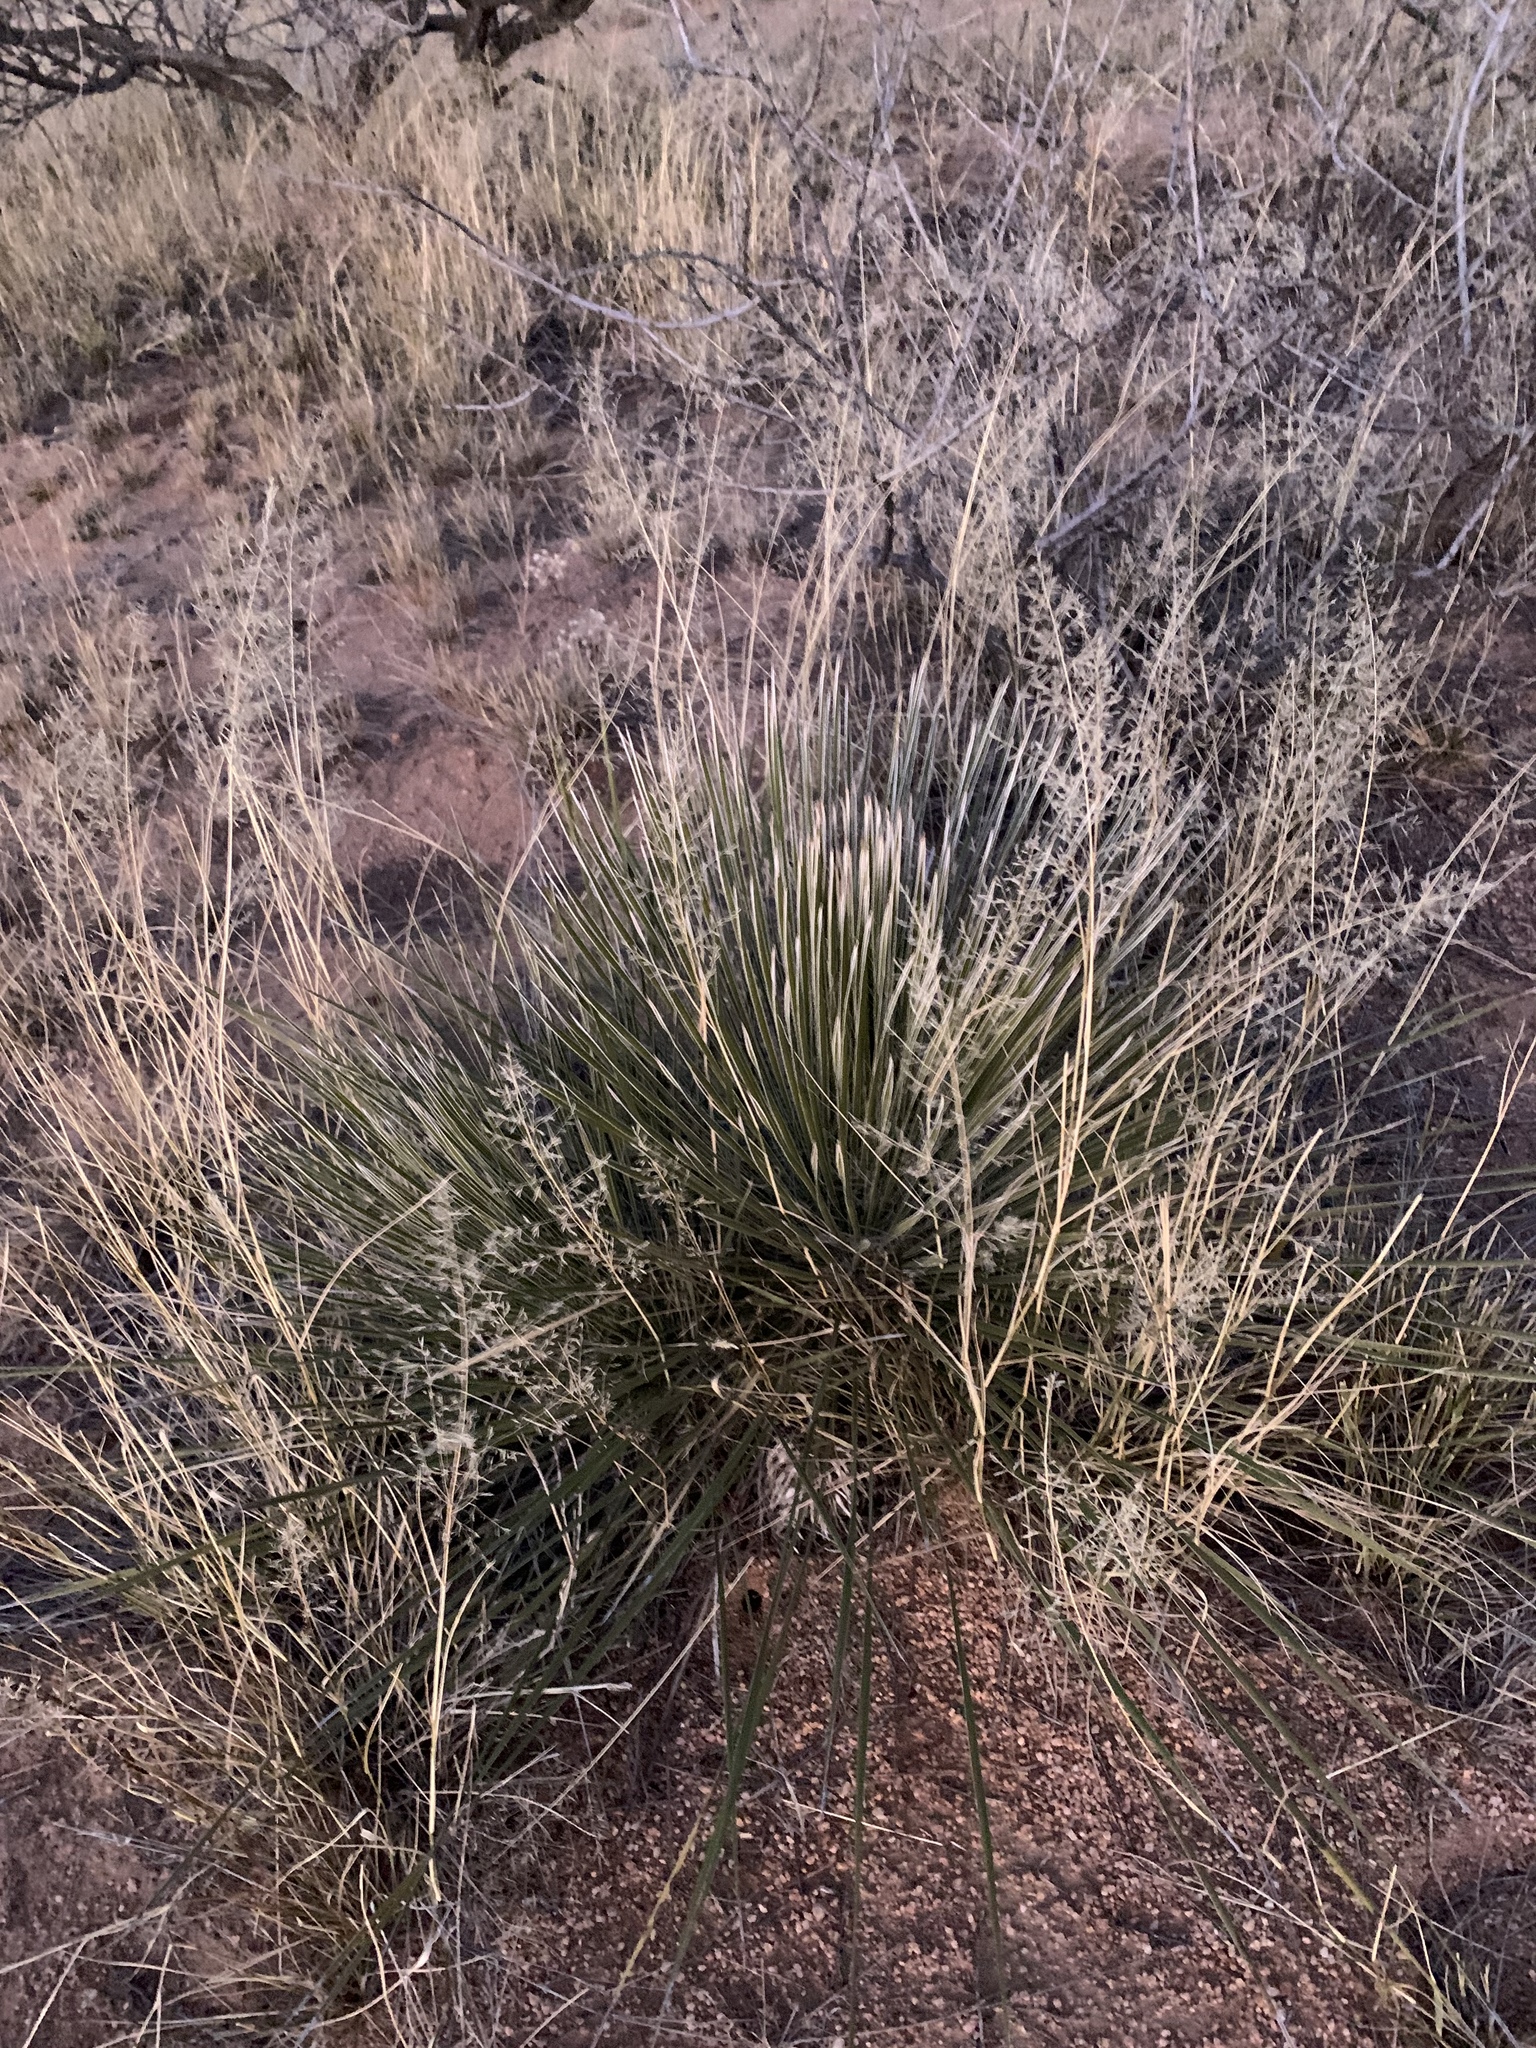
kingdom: Plantae
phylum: Tracheophyta
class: Liliopsida
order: Asparagales
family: Asparagaceae
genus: Yucca
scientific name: Yucca elata
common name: Palmella
